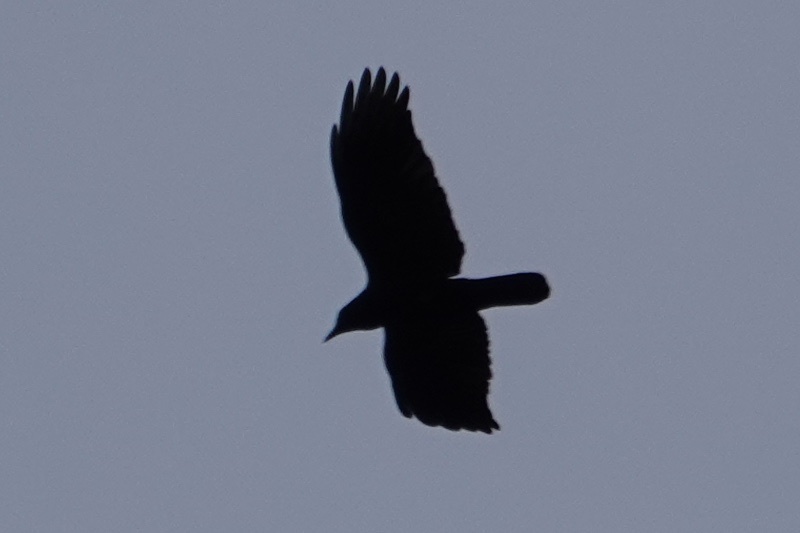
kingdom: Animalia
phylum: Chordata
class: Aves
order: Passeriformes
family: Corvidae
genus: Corvus
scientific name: Corvus brachyrhynchos
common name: American crow
